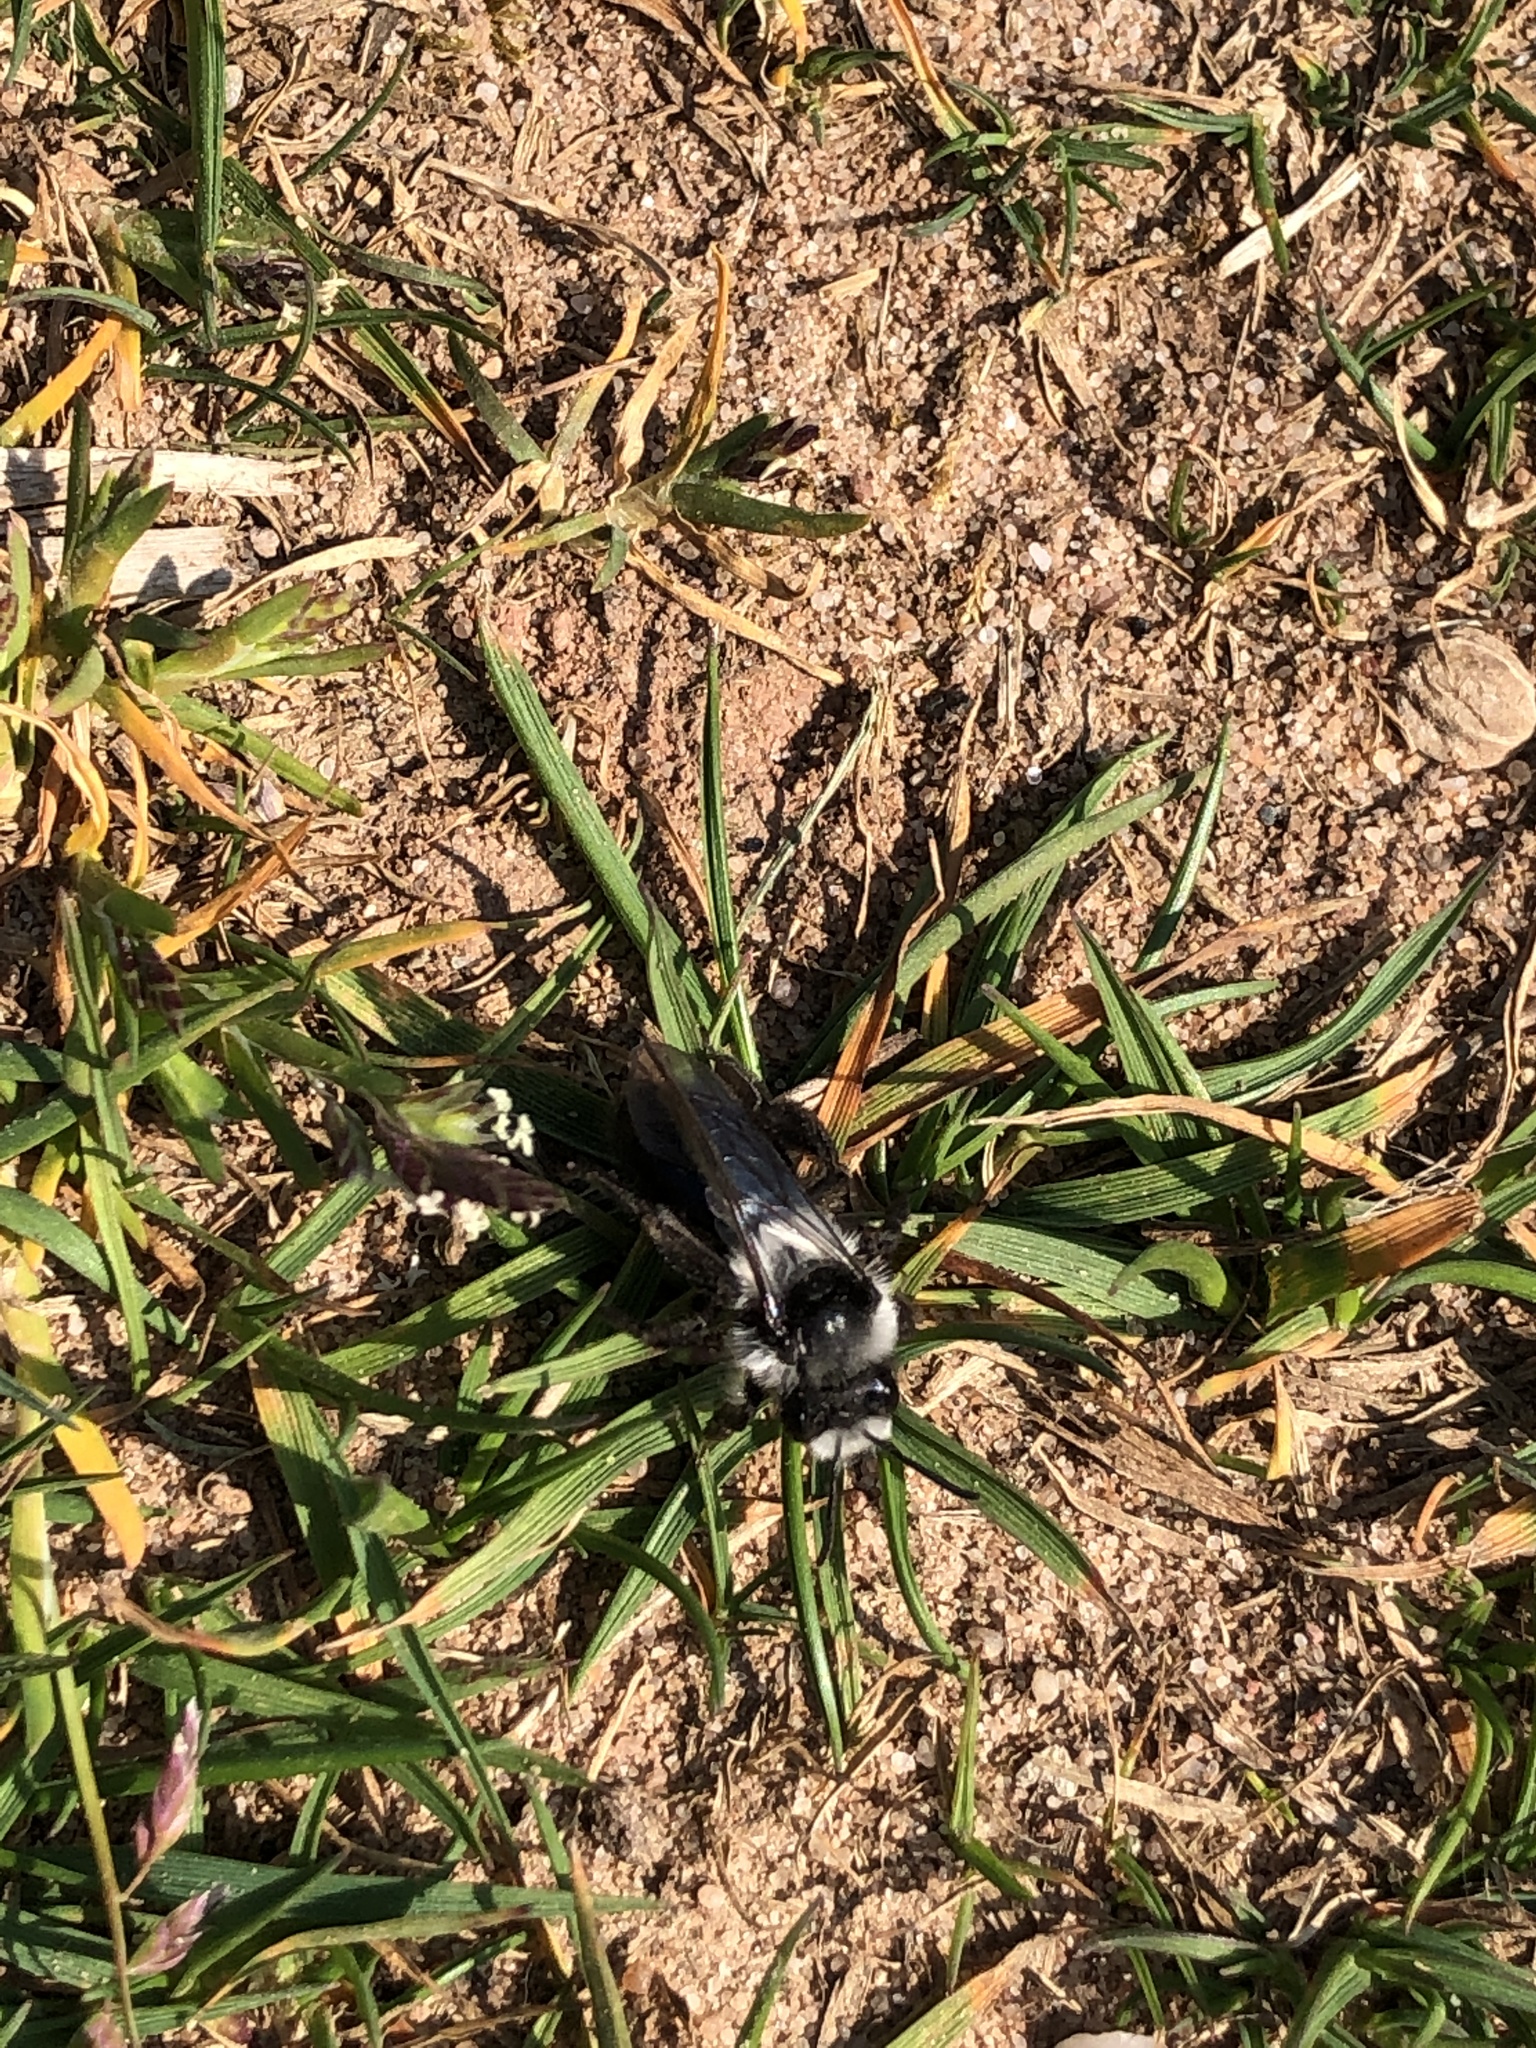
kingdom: Animalia
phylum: Arthropoda
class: Insecta
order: Hymenoptera
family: Andrenidae
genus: Andrena
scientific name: Andrena cineraria
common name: Ashy mining bee
